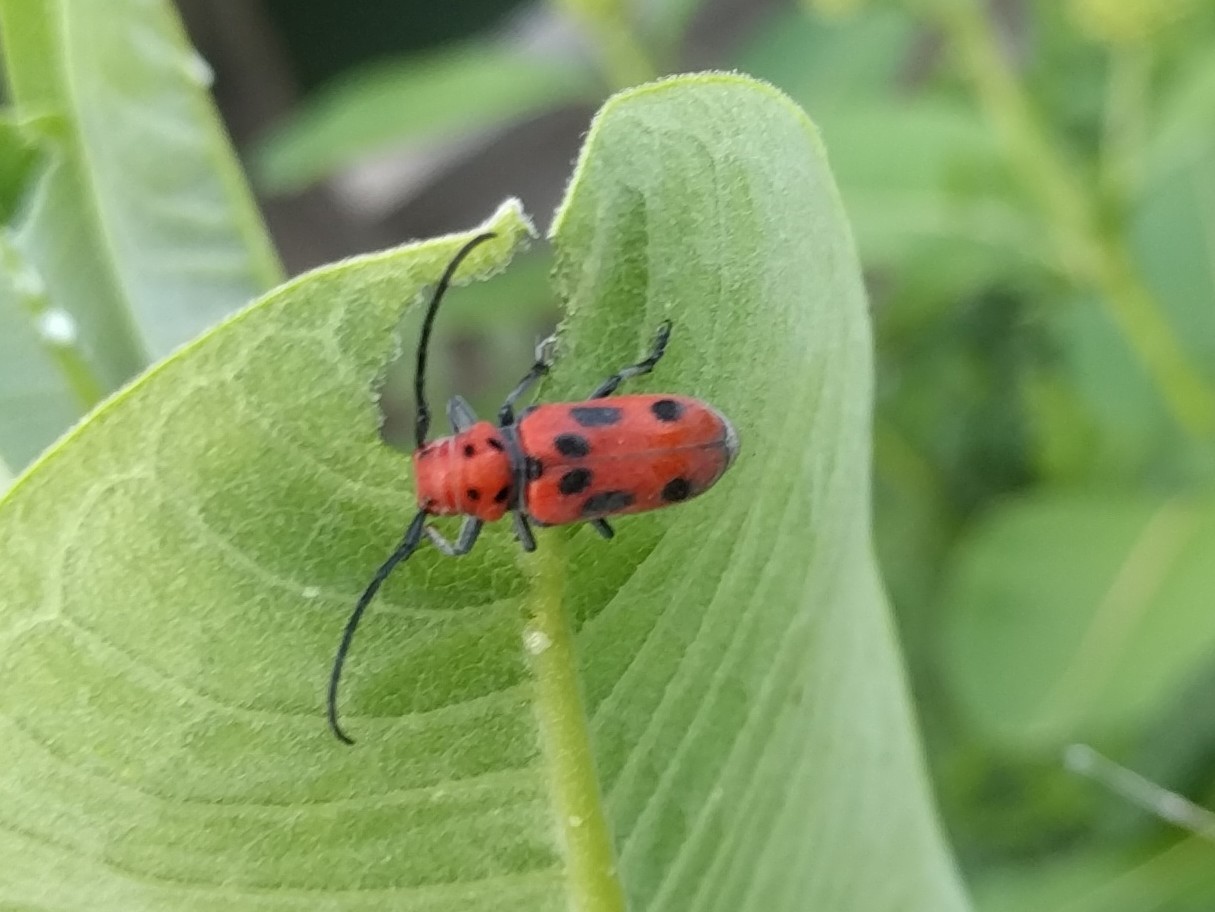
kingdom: Animalia
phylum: Arthropoda
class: Insecta
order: Coleoptera
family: Cerambycidae
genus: Tetraopes
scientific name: Tetraopes tetrophthalmus
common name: Red milkweed beetle
